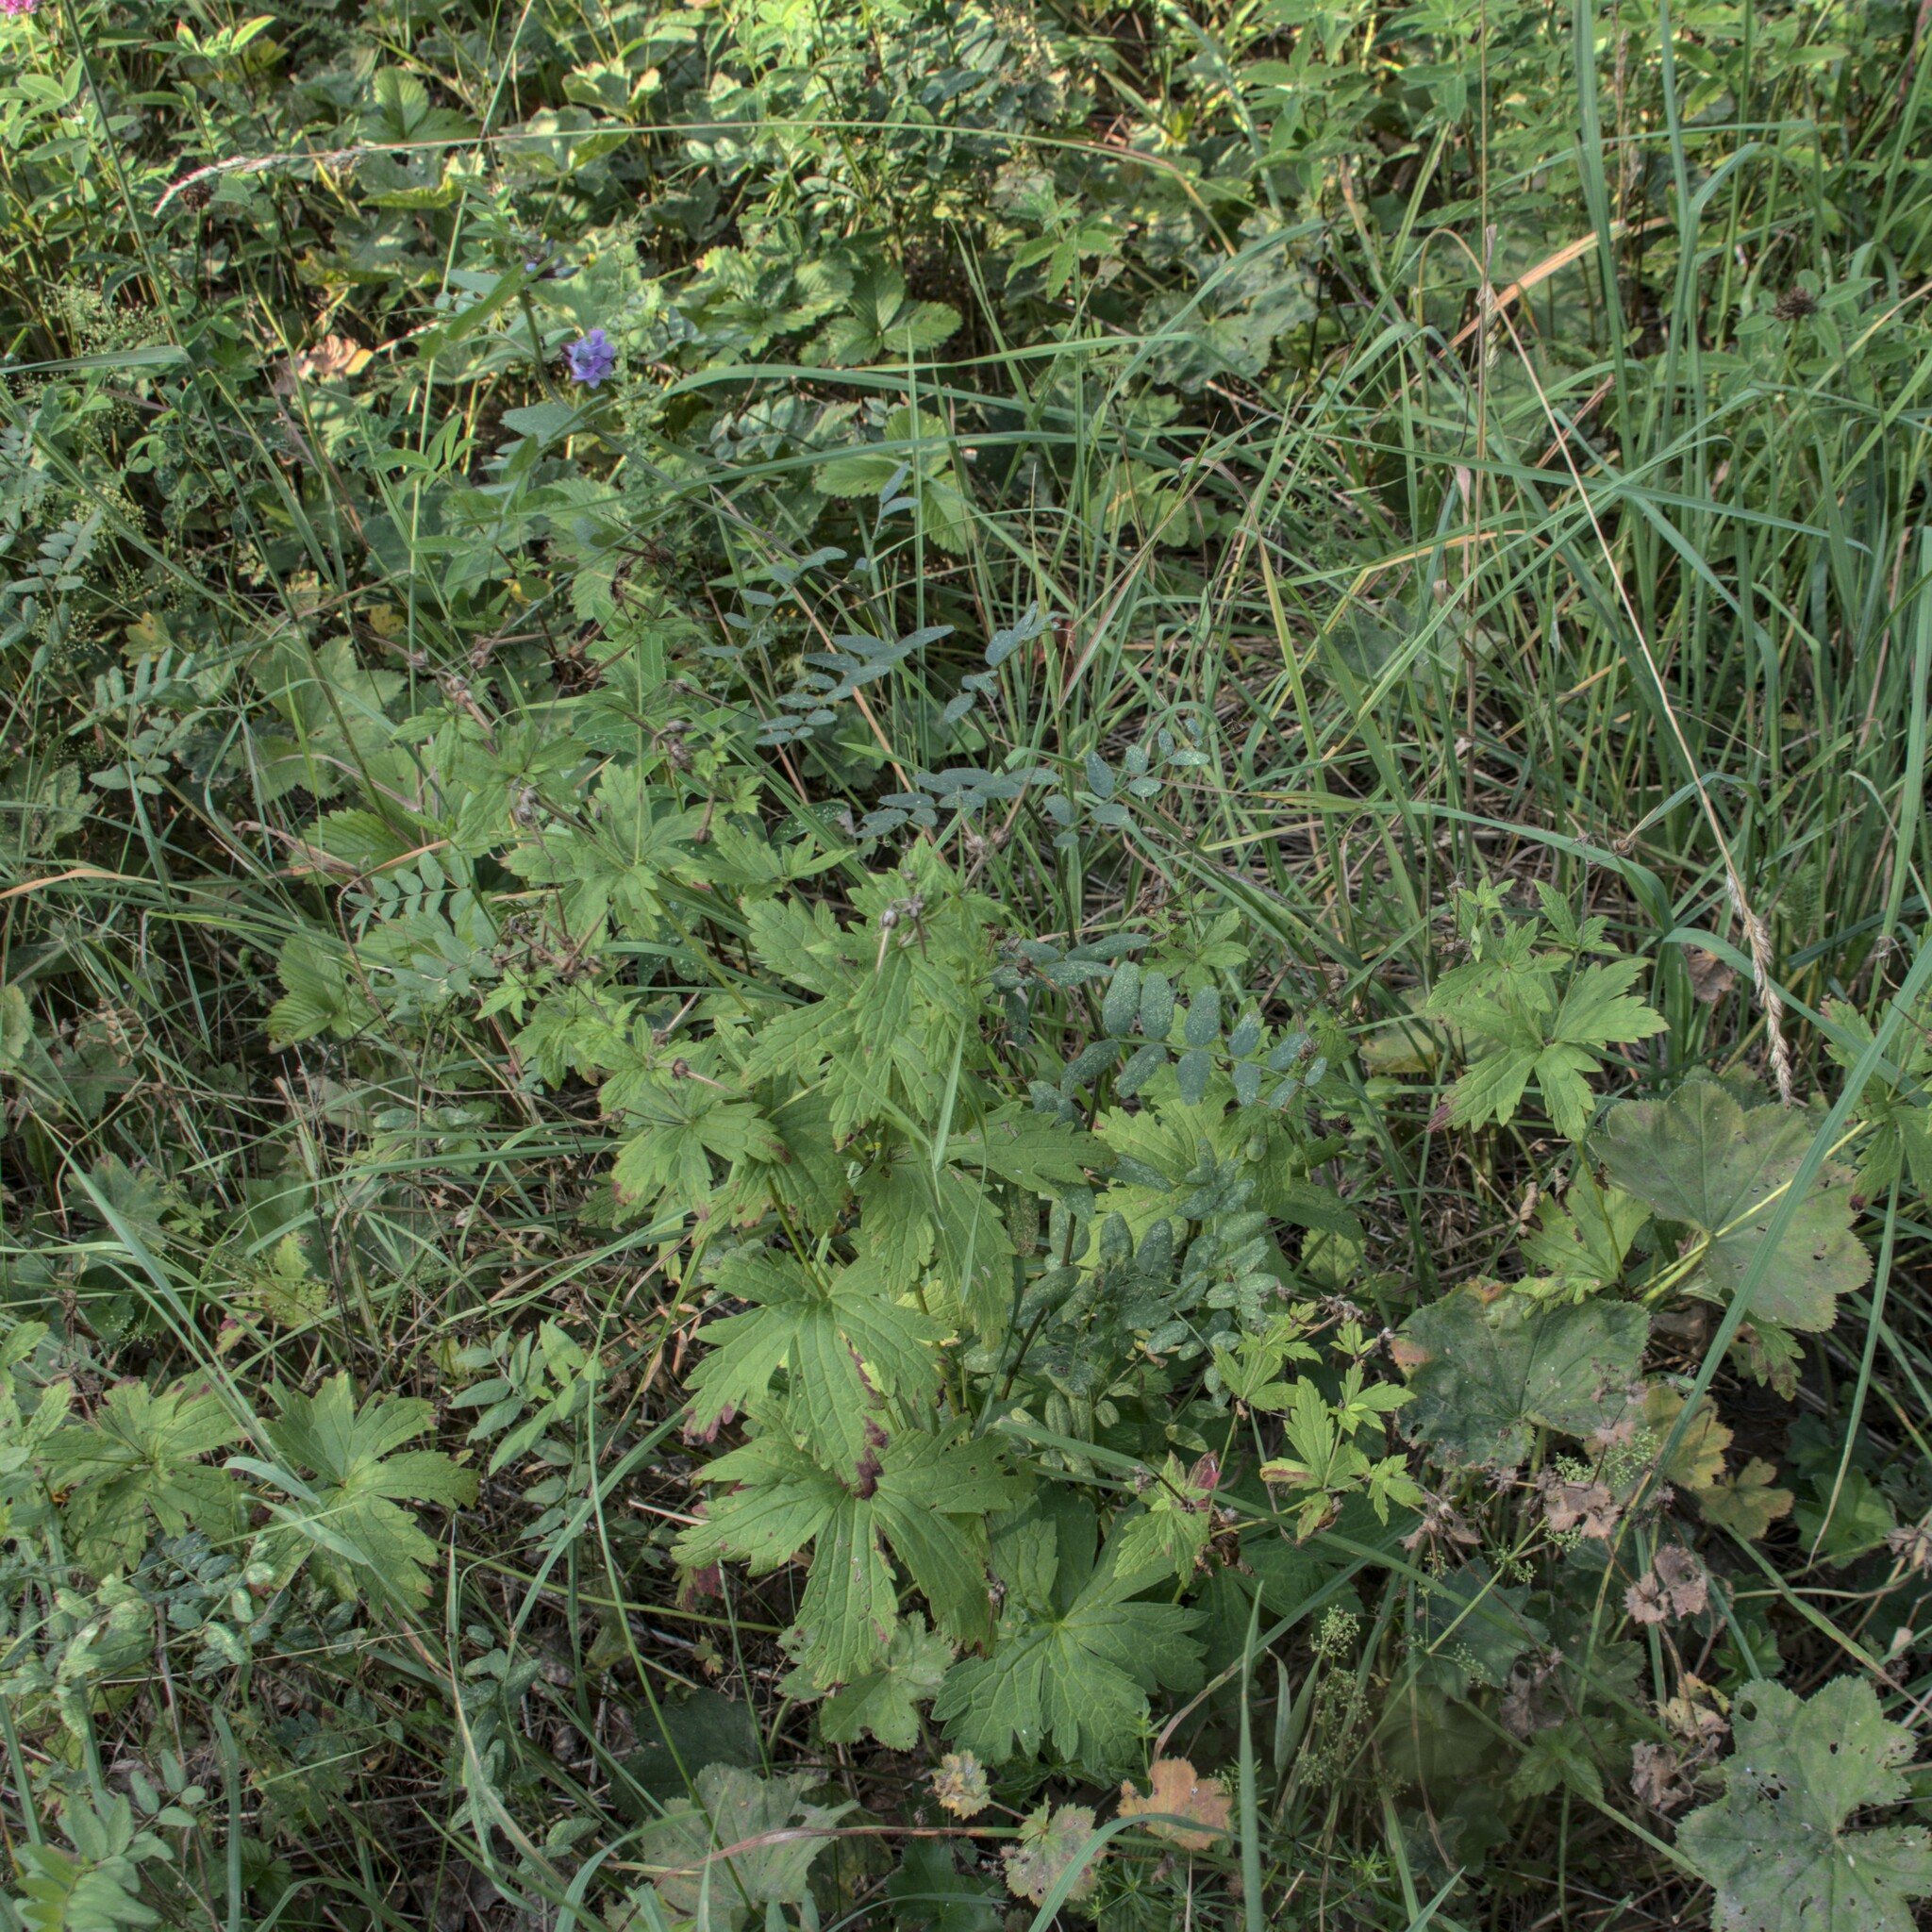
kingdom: Plantae
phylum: Tracheophyta
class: Magnoliopsida
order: Fabales
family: Fabaceae
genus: Vicia
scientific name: Vicia sepium
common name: Bush vetch
